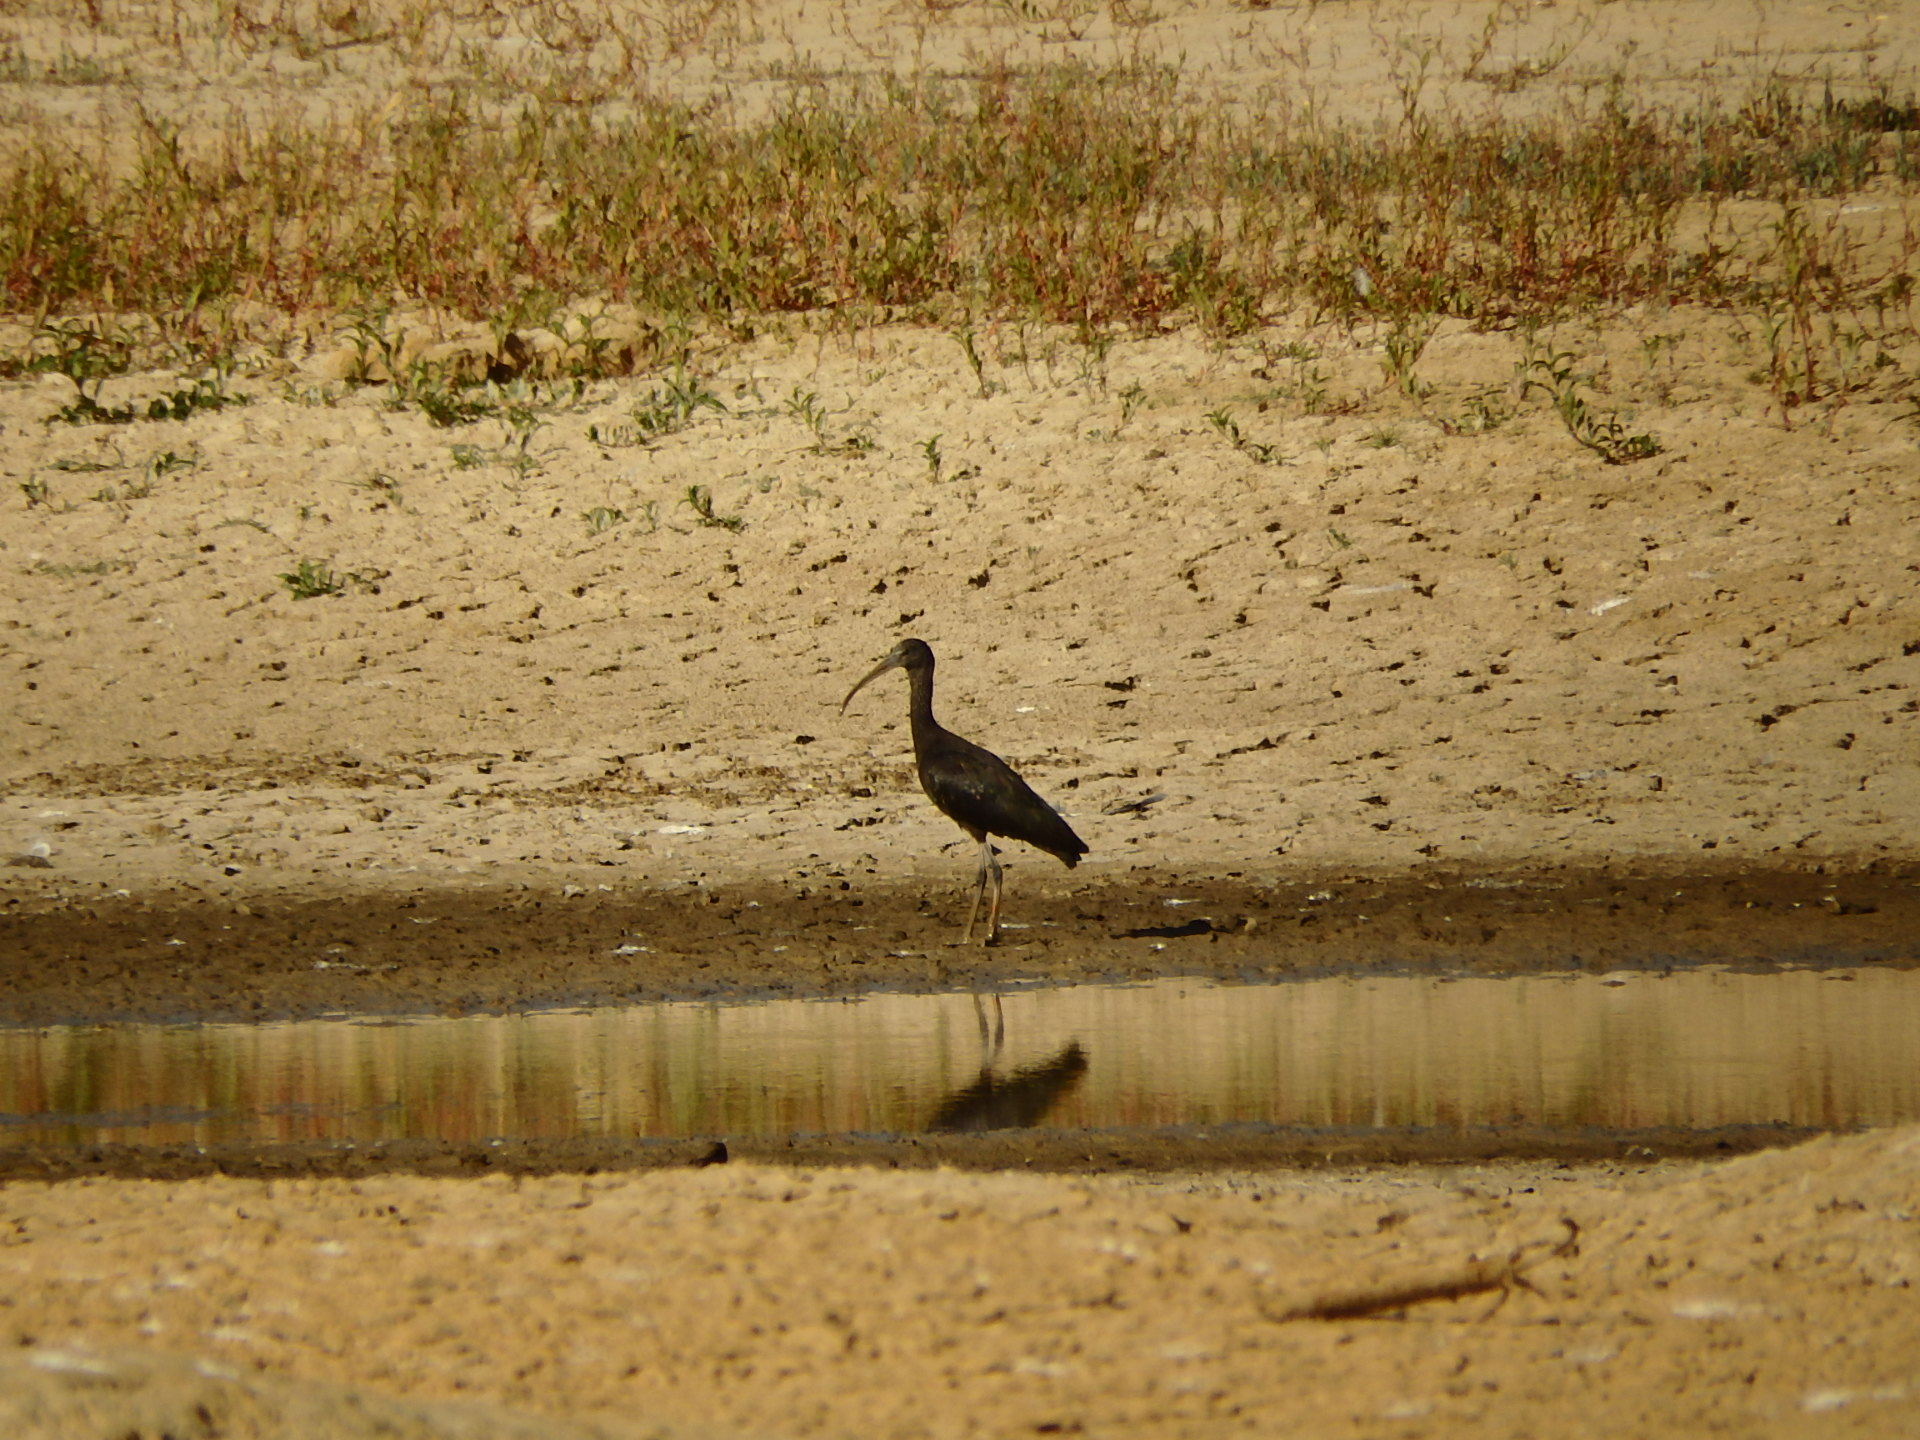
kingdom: Animalia
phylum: Chordata
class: Aves
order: Pelecaniformes
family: Threskiornithidae
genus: Plegadis
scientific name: Plegadis falcinellus
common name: Glossy ibis
